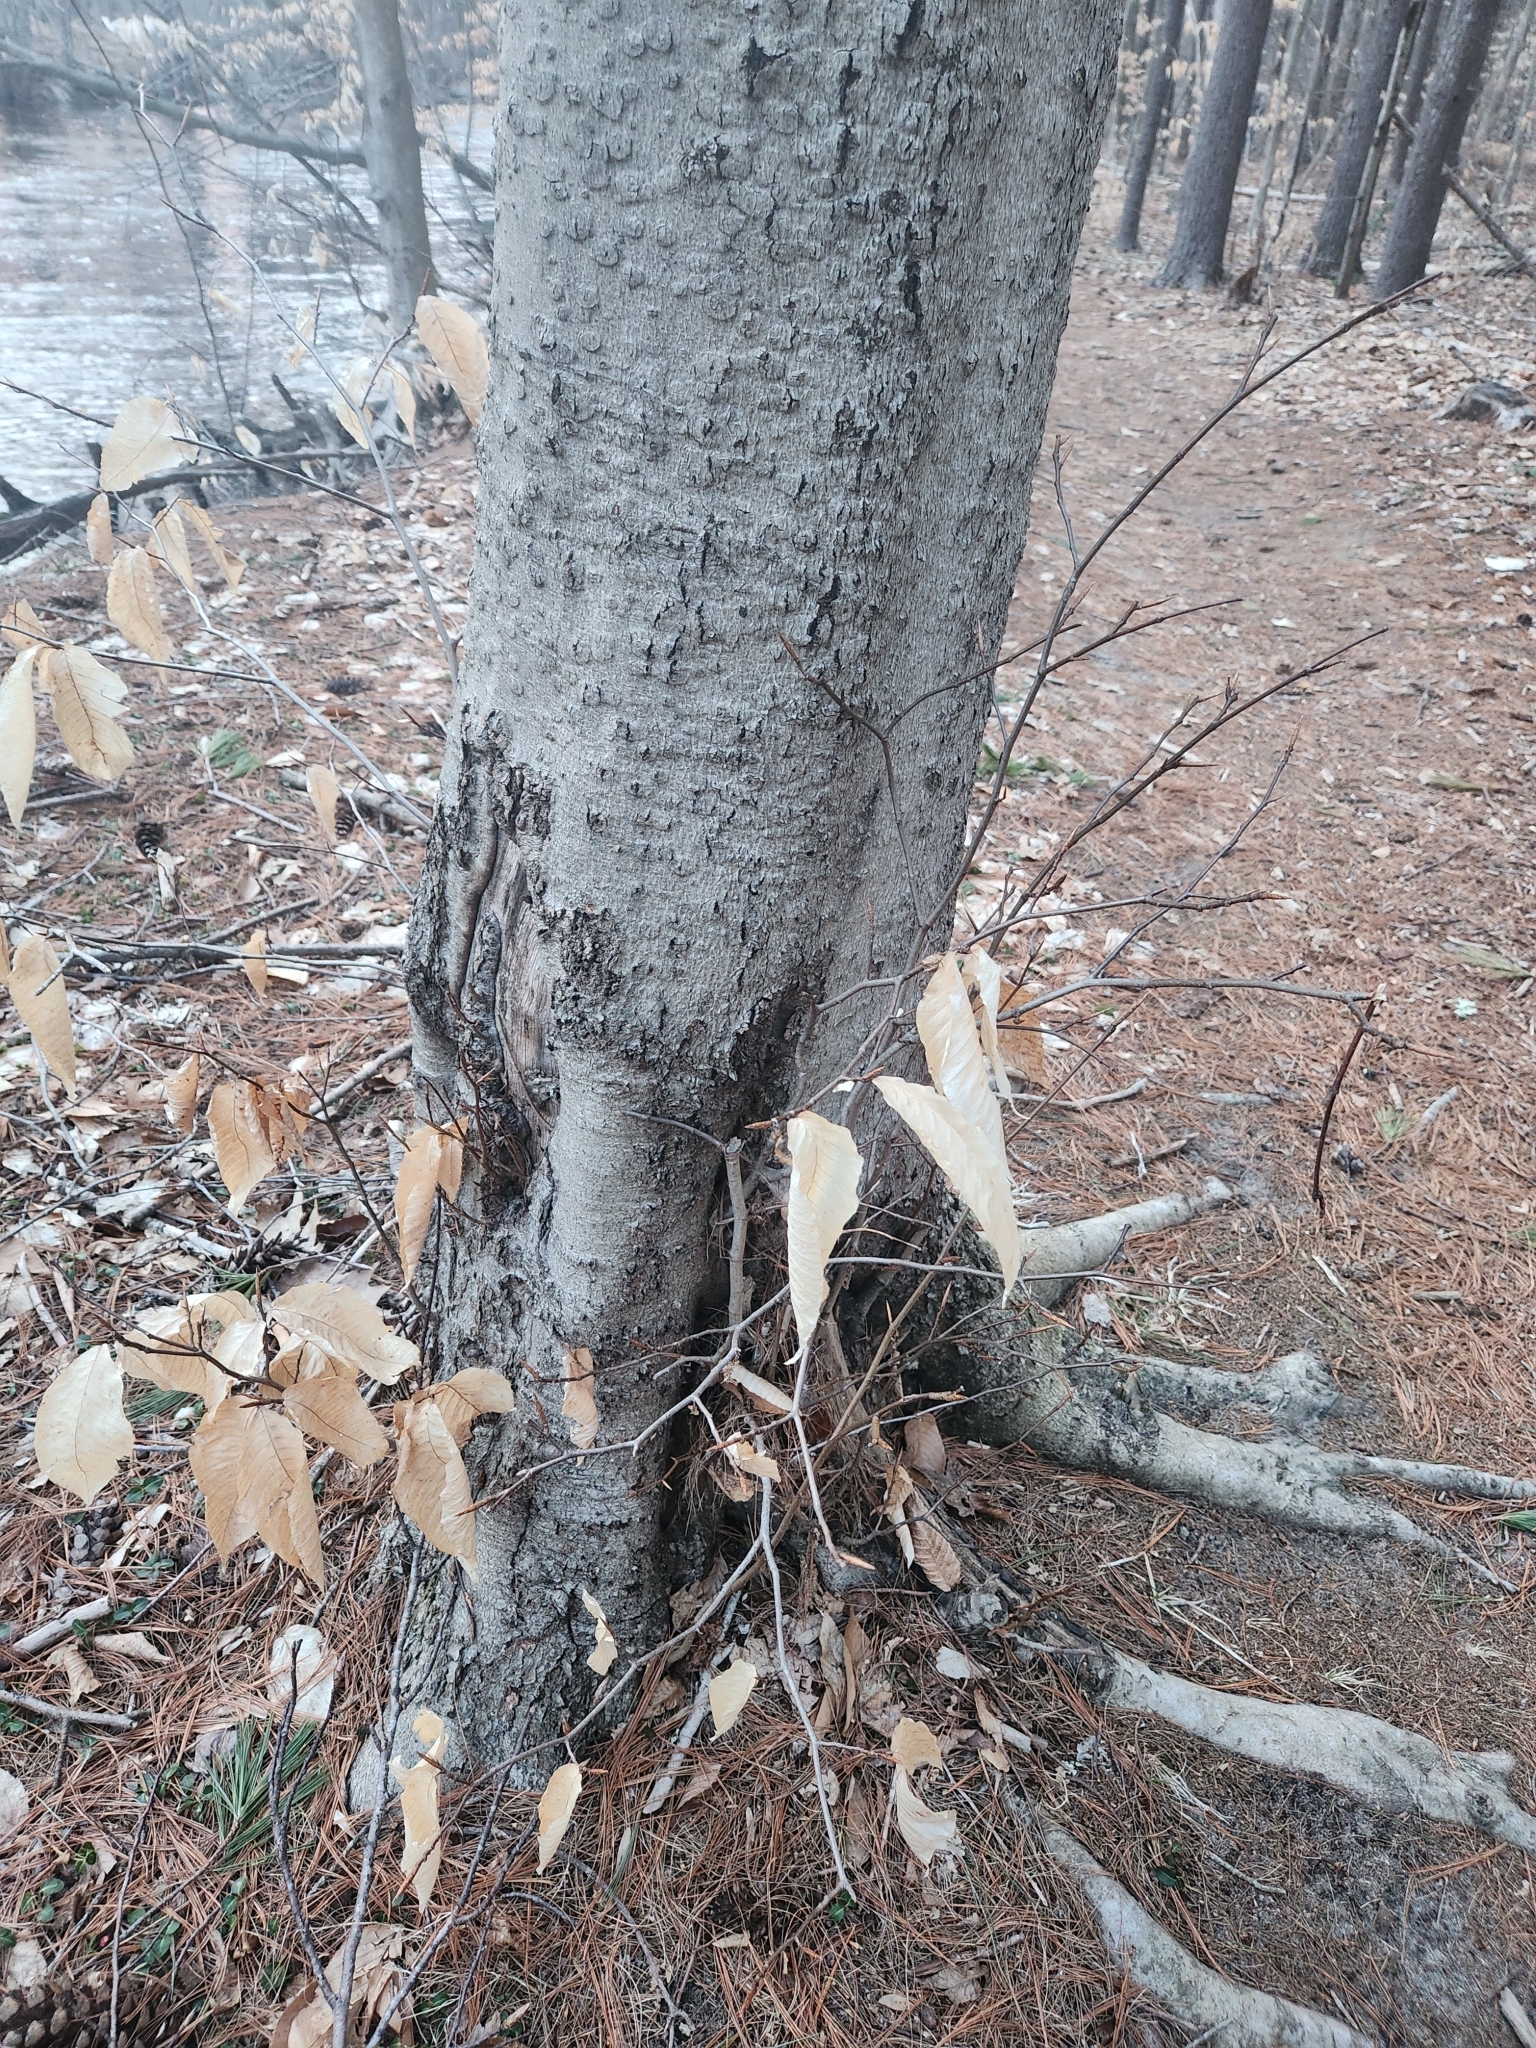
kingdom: Plantae
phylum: Tracheophyta
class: Magnoliopsida
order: Fagales
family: Fagaceae
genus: Fagus
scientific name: Fagus grandifolia
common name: American beech
